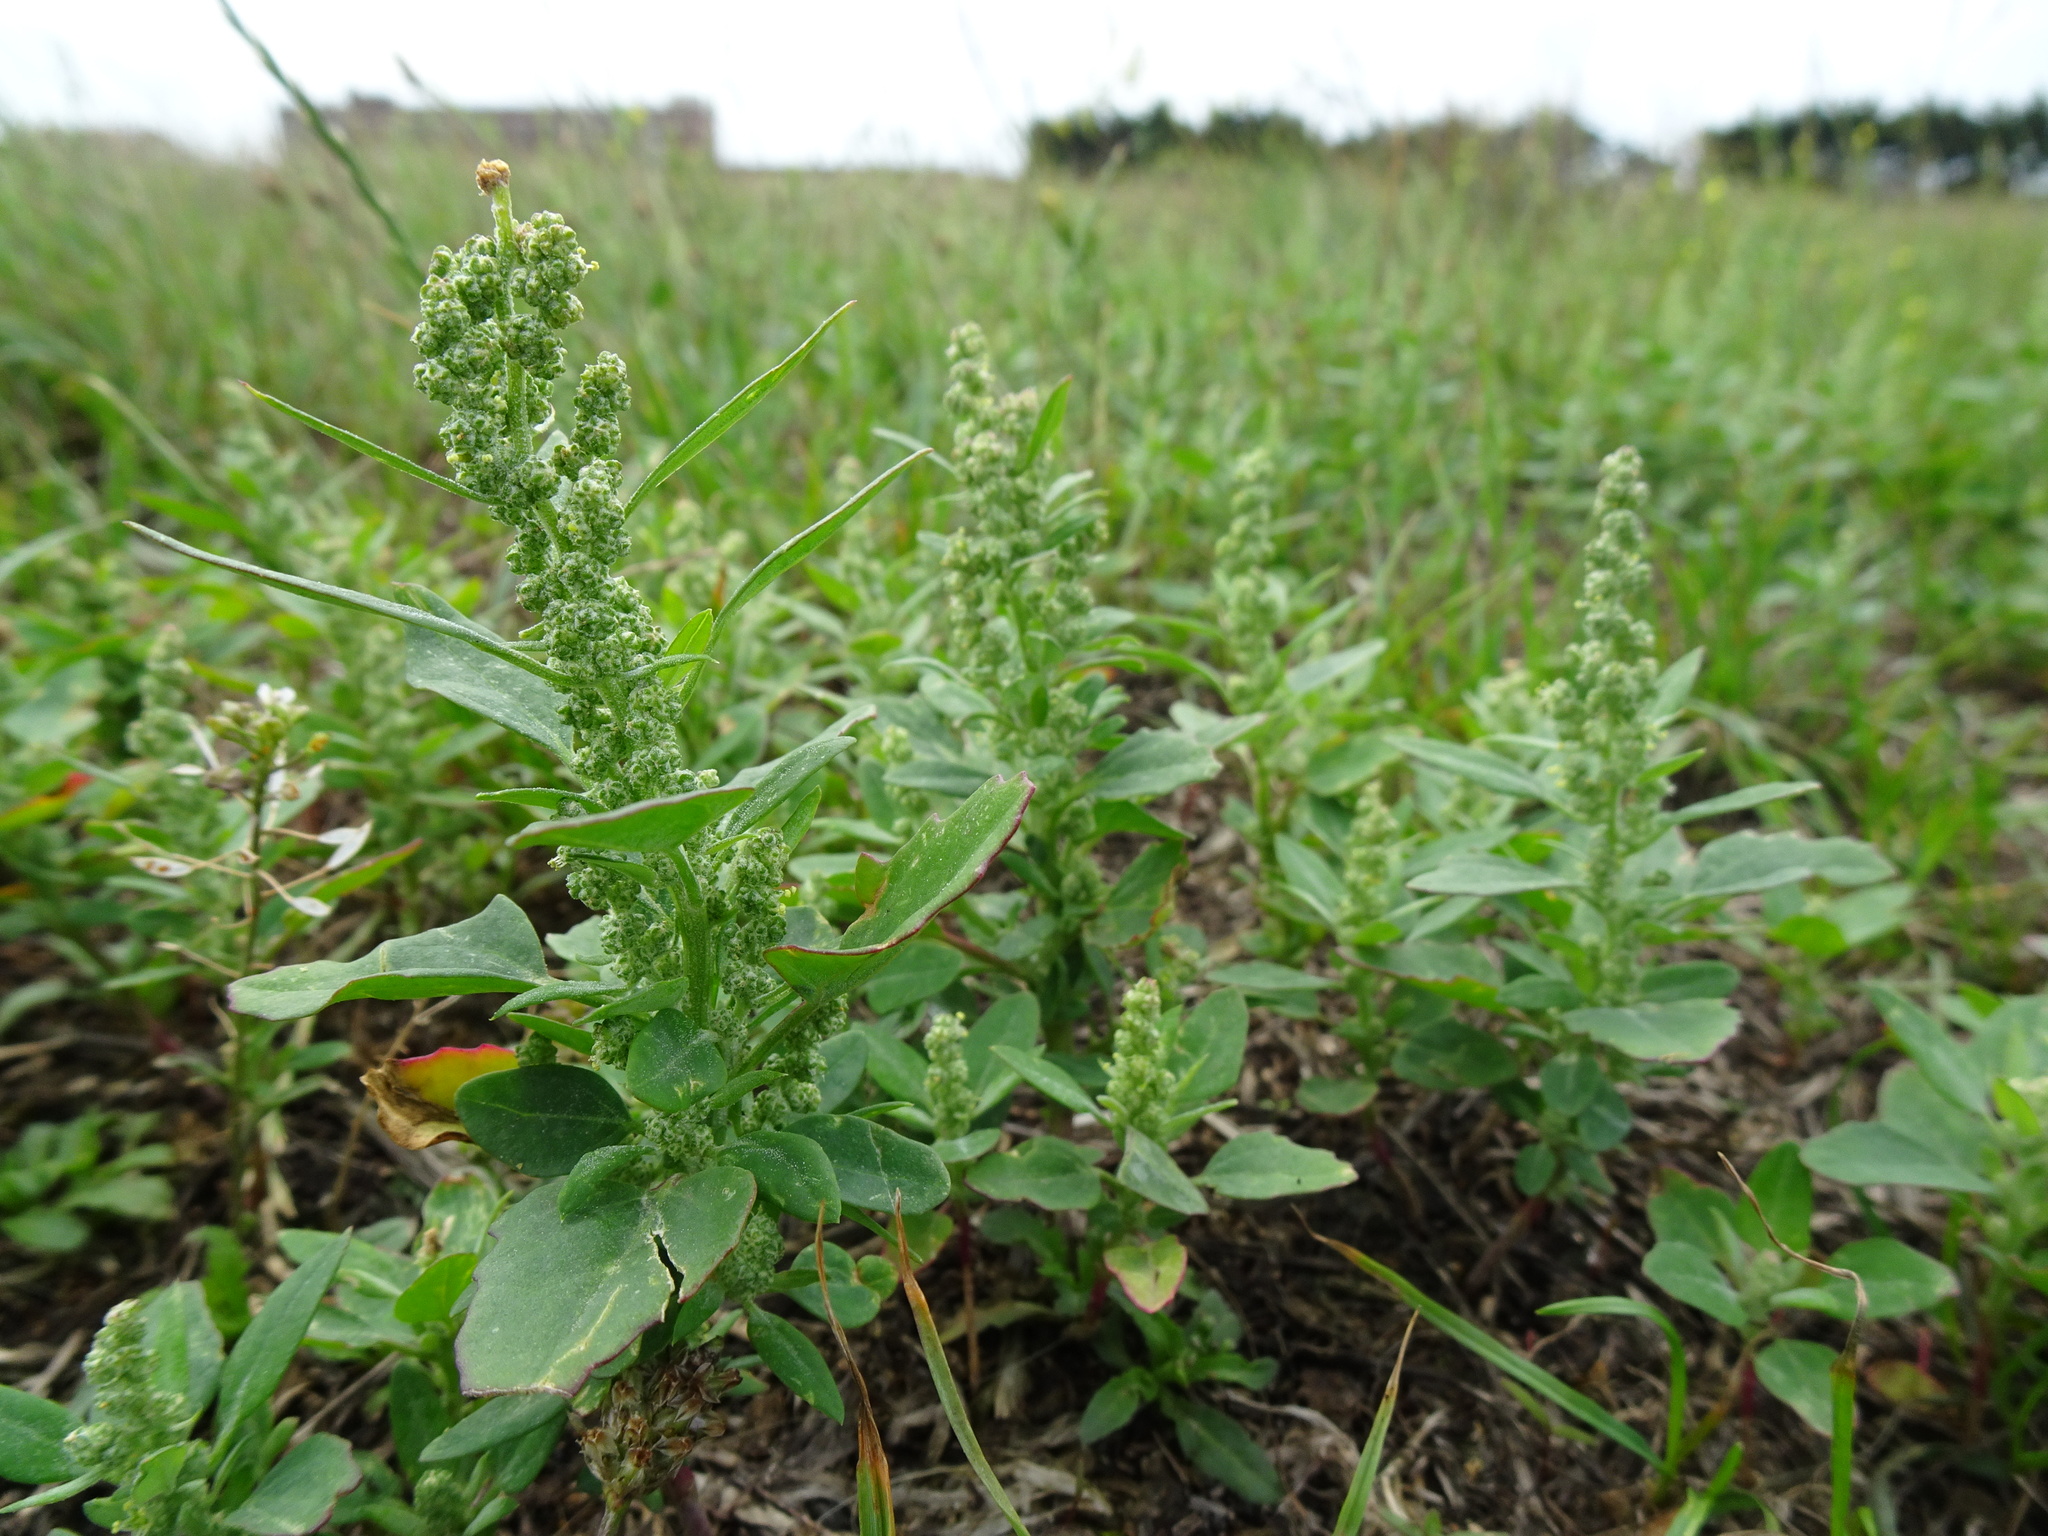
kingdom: Plantae
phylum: Tracheophyta
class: Magnoliopsida
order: Caryophyllales
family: Amaranthaceae
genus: Chenopodium
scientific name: Chenopodium album
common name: Fat-hen
